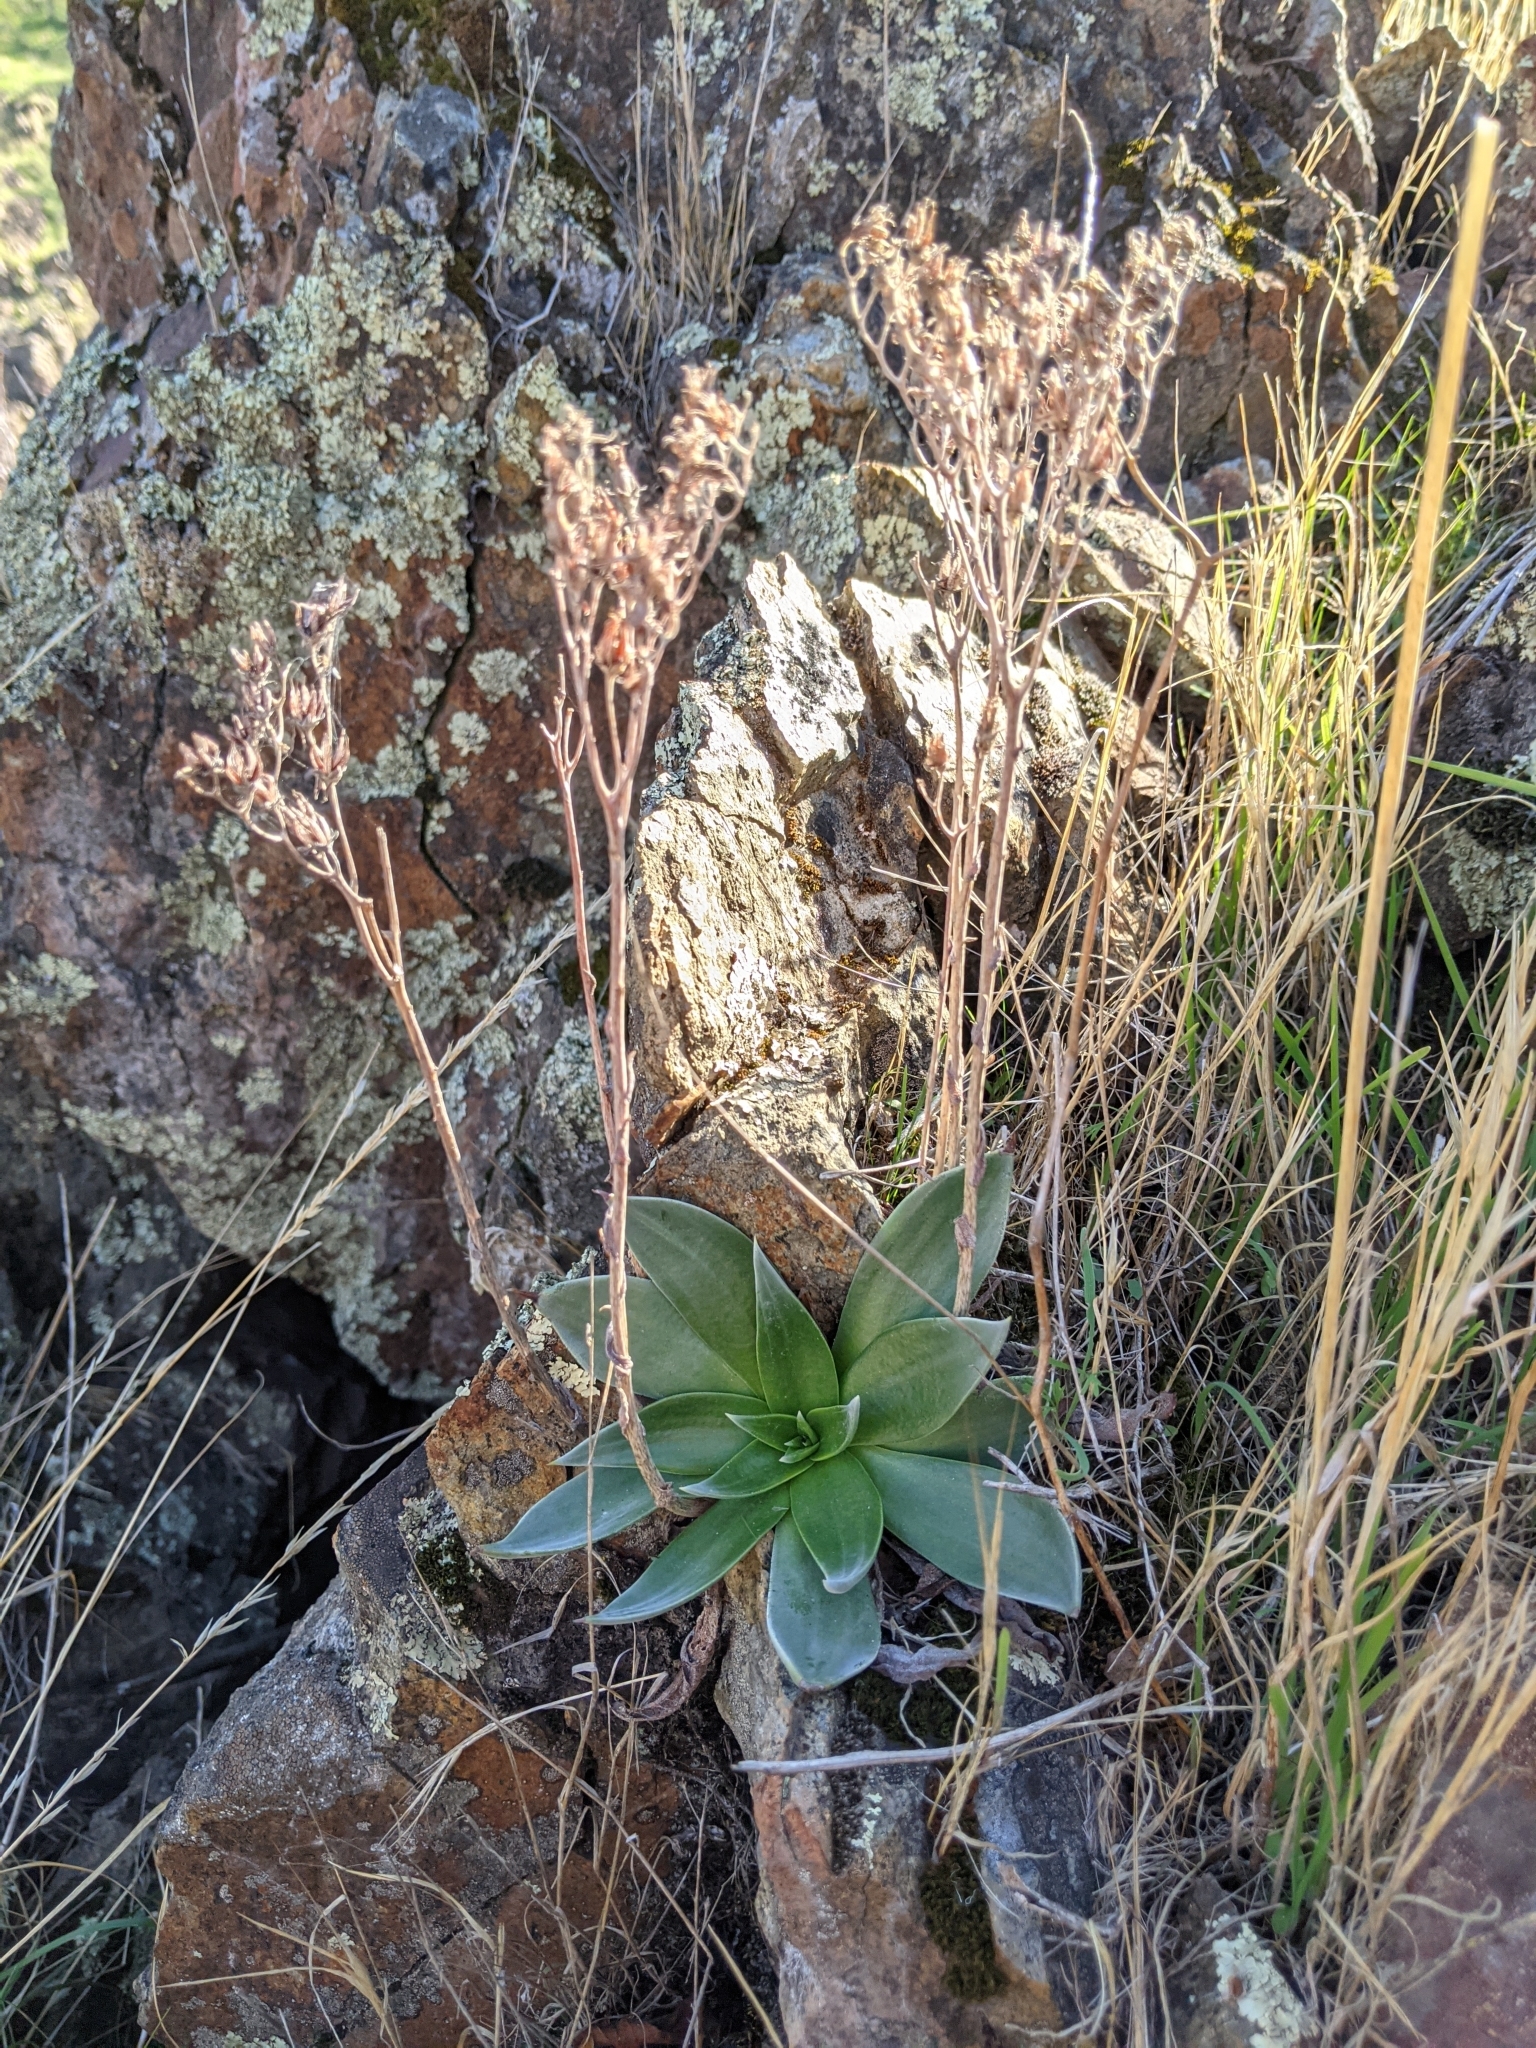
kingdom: Plantae
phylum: Tracheophyta
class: Magnoliopsida
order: Saxifragales
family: Crassulaceae
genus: Dudleya
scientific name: Dudleya cymosa
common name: Canyon dudleya
